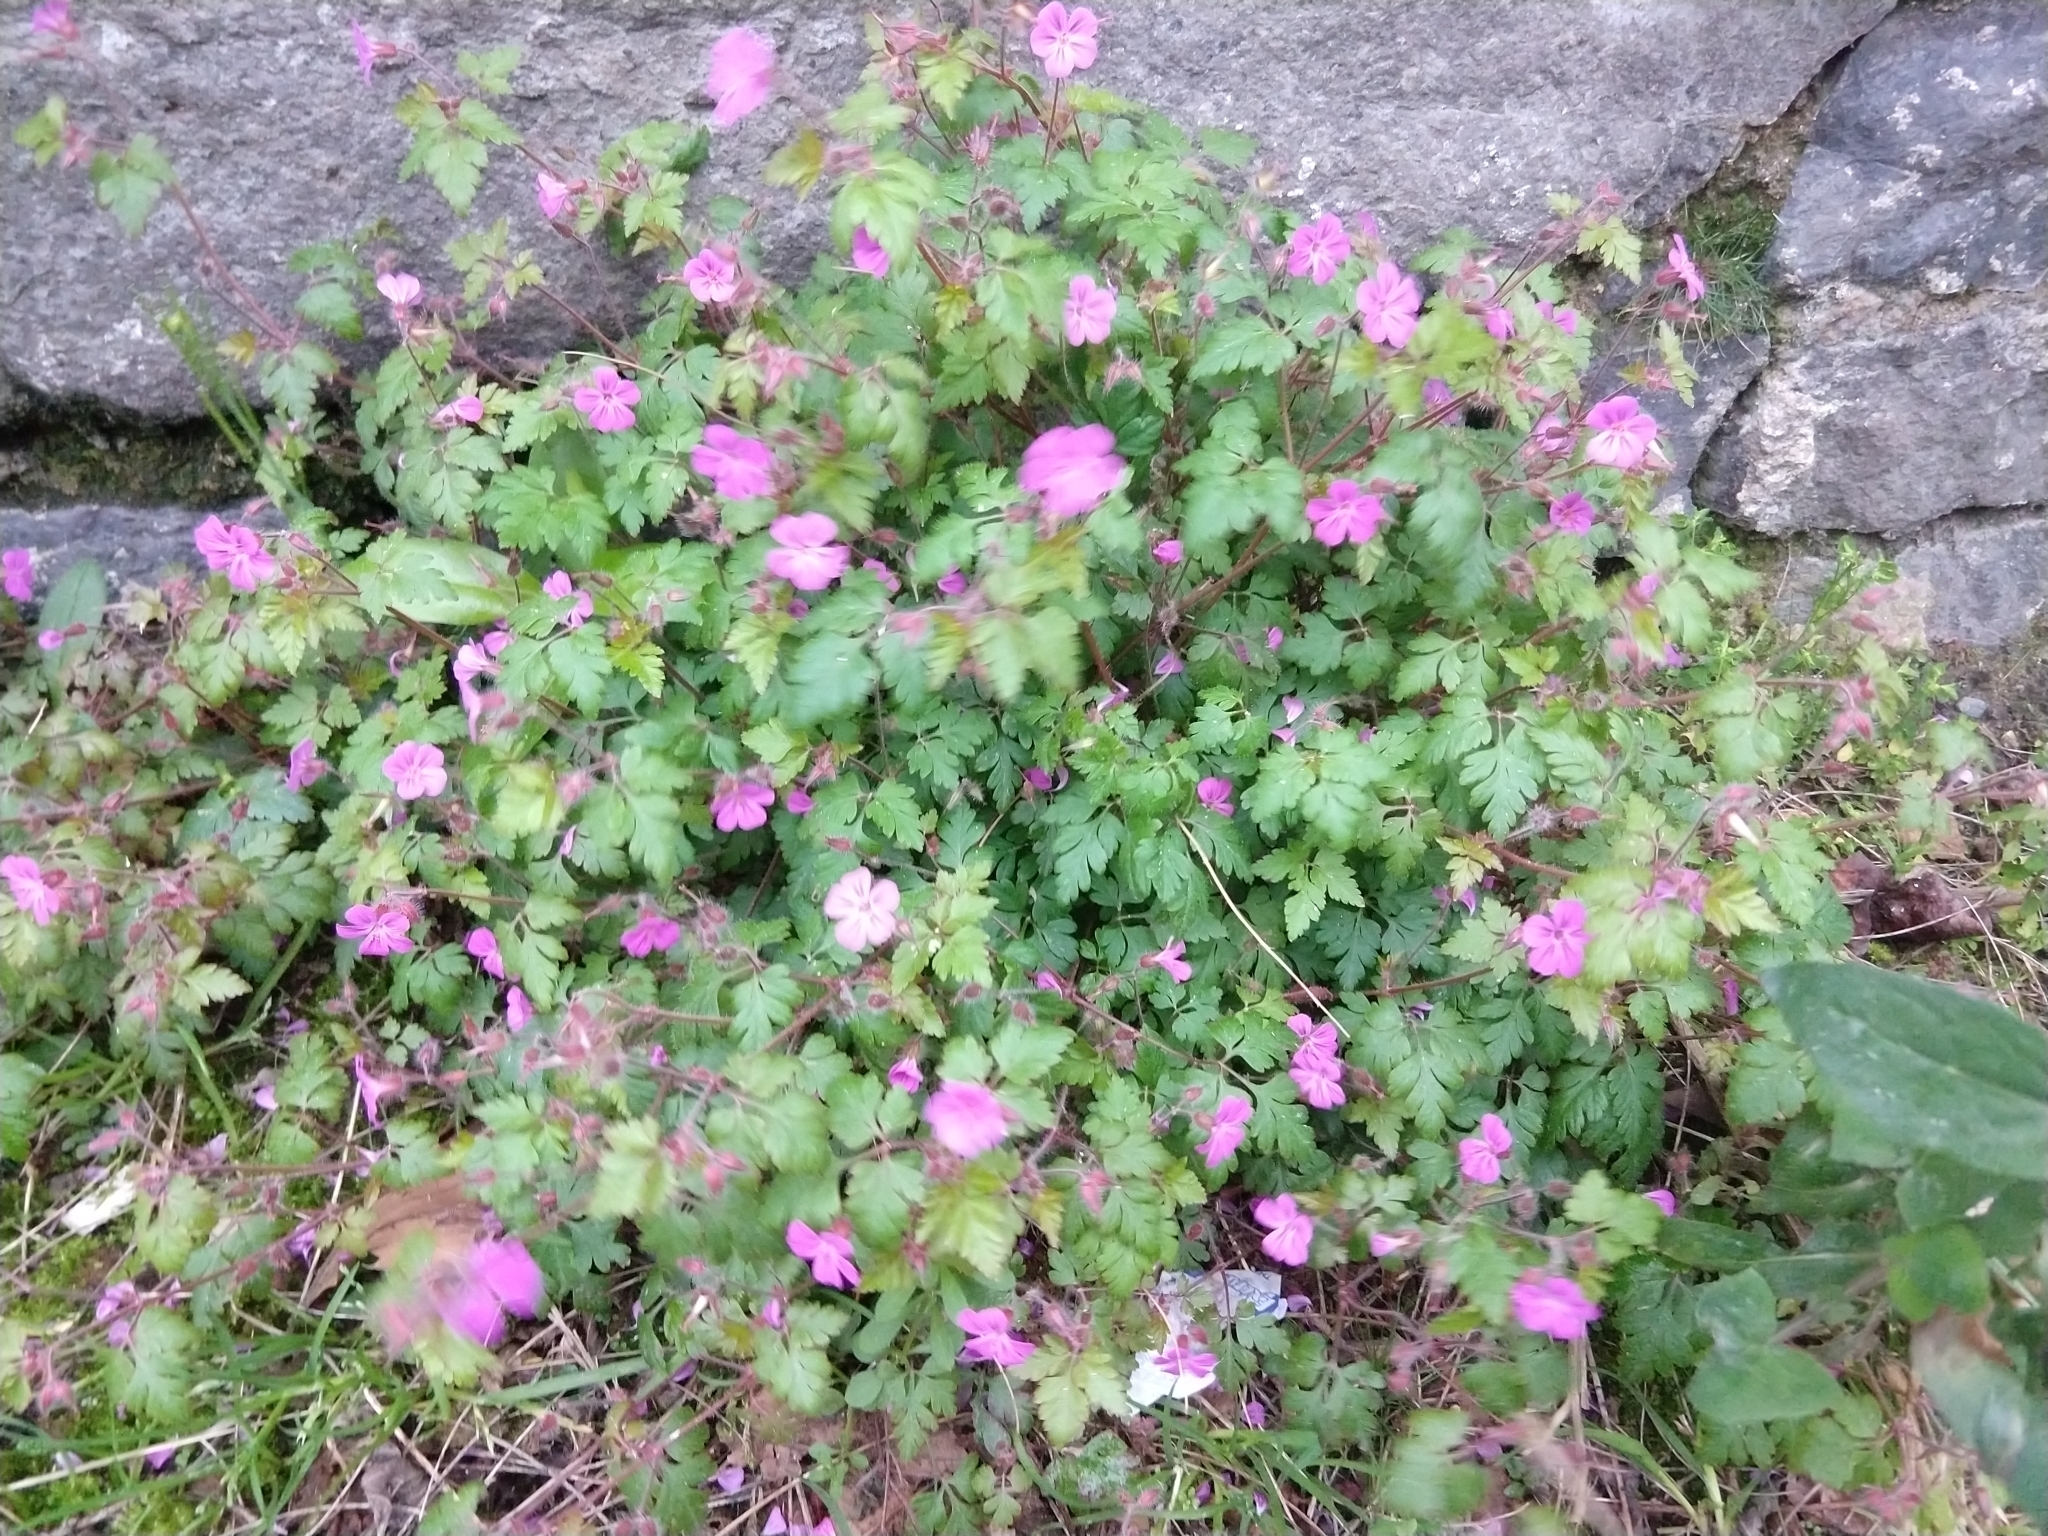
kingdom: Plantae
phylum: Tracheophyta
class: Magnoliopsida
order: Geraniales
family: Geraniaceae
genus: Geranium
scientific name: Geranium robertianum
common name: Herb-robert
